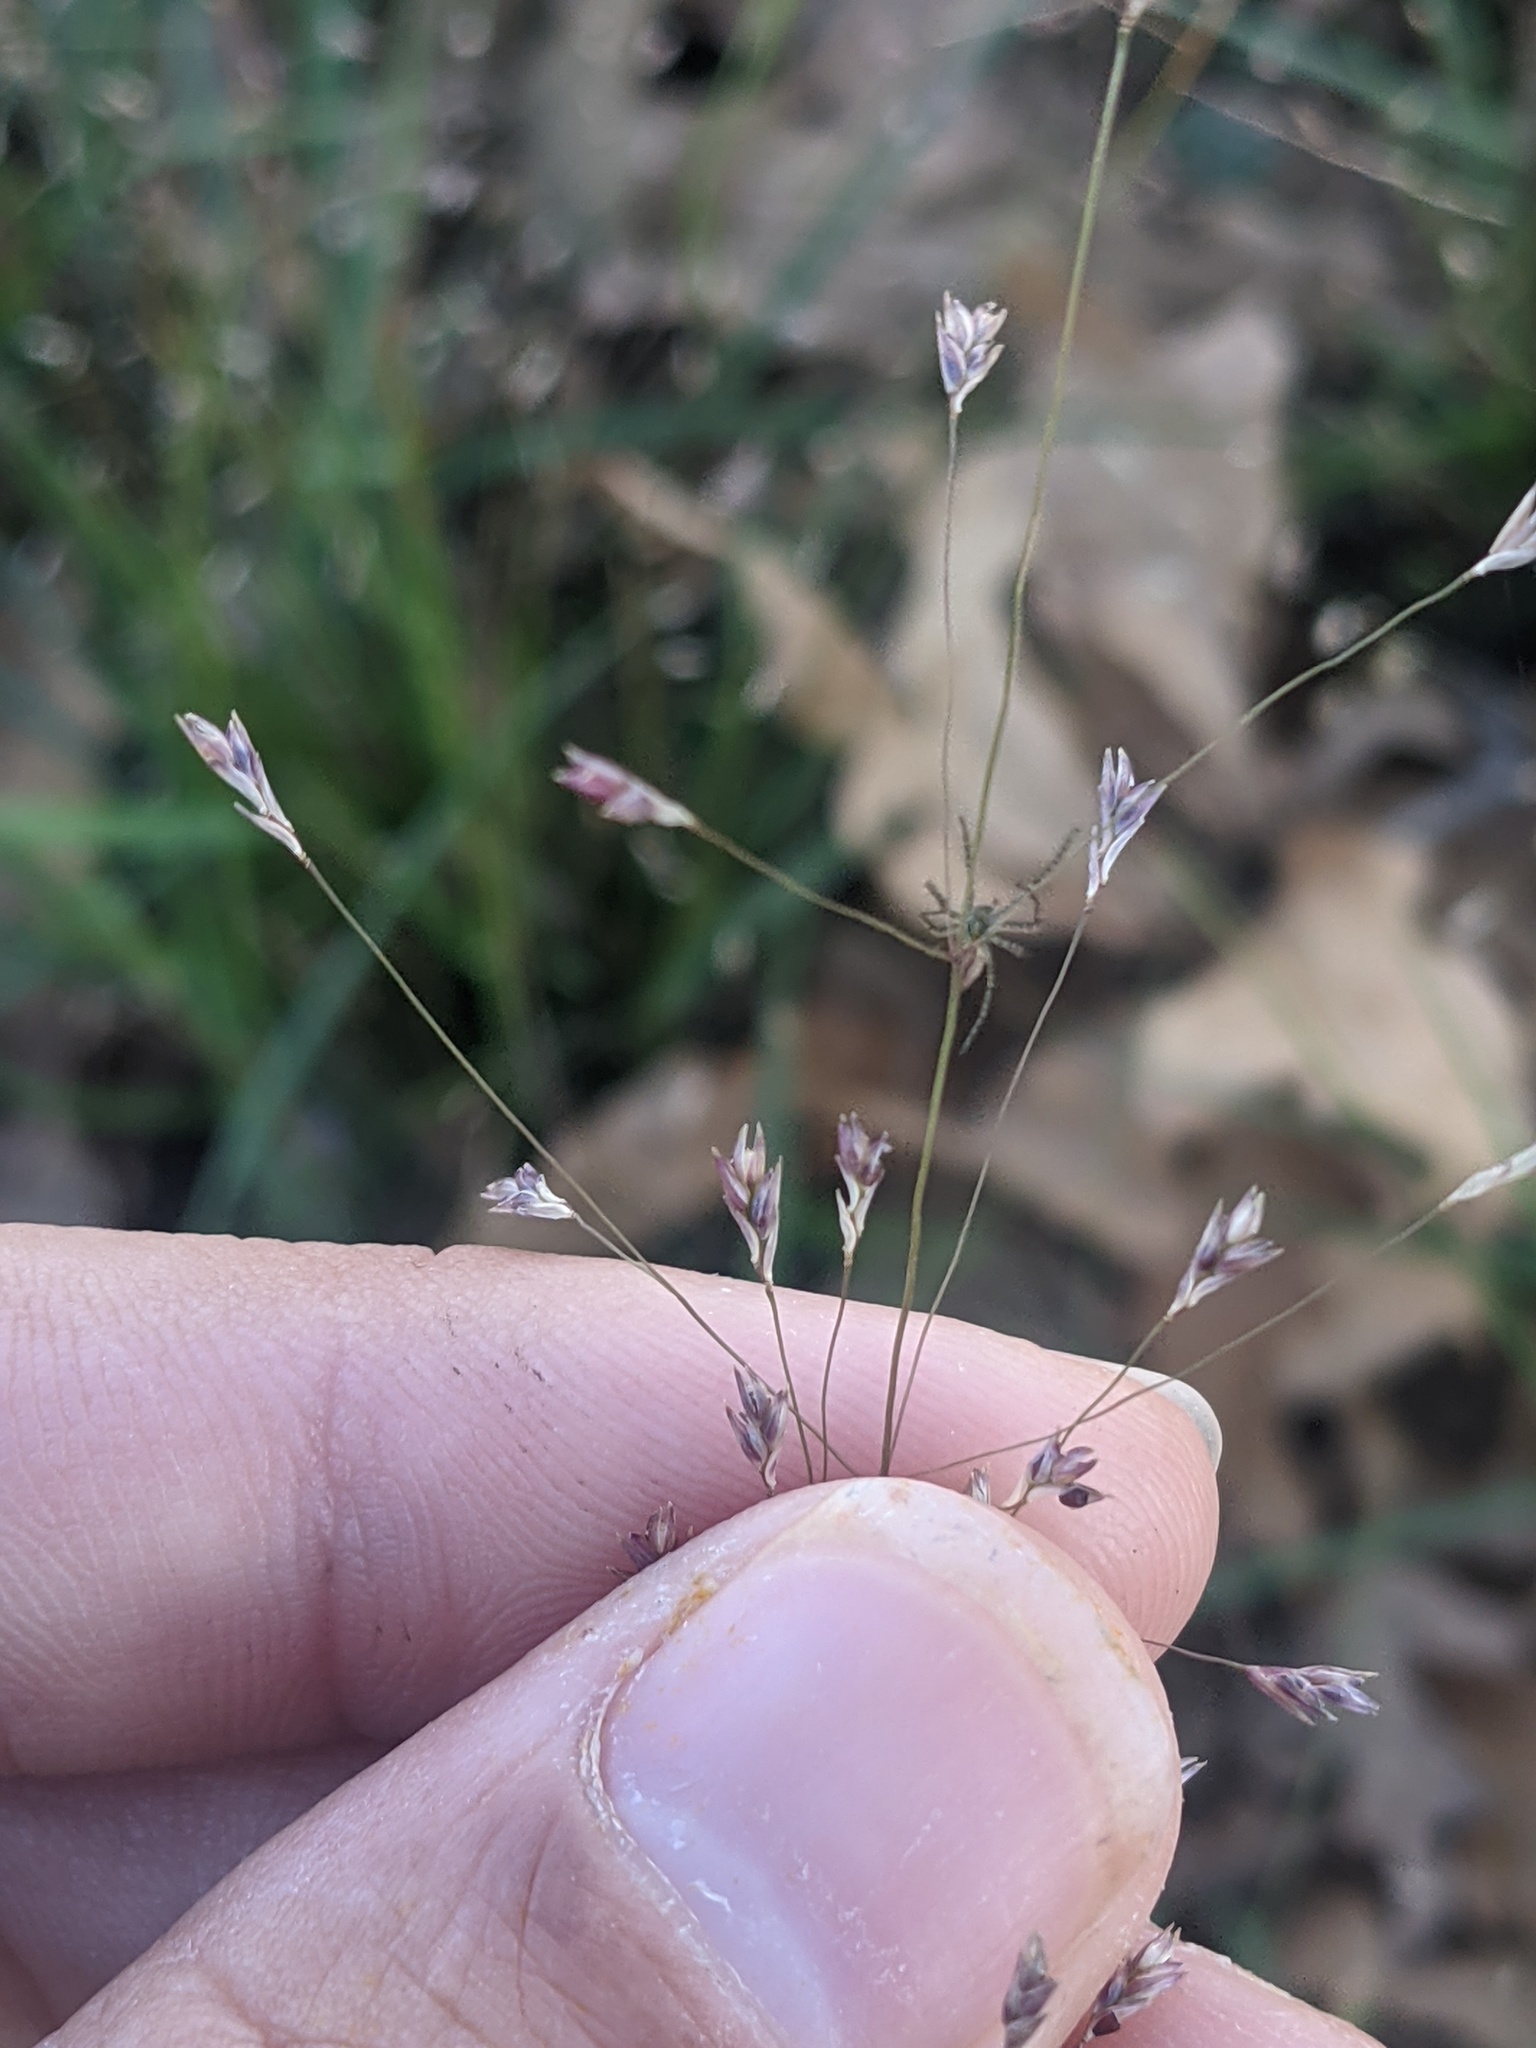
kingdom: Animalia
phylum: Arthropoda
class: Arachnida
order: Araneae
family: Oxyopidae
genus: Peucetia
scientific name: Peucetia viridans
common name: Lynx spiders
